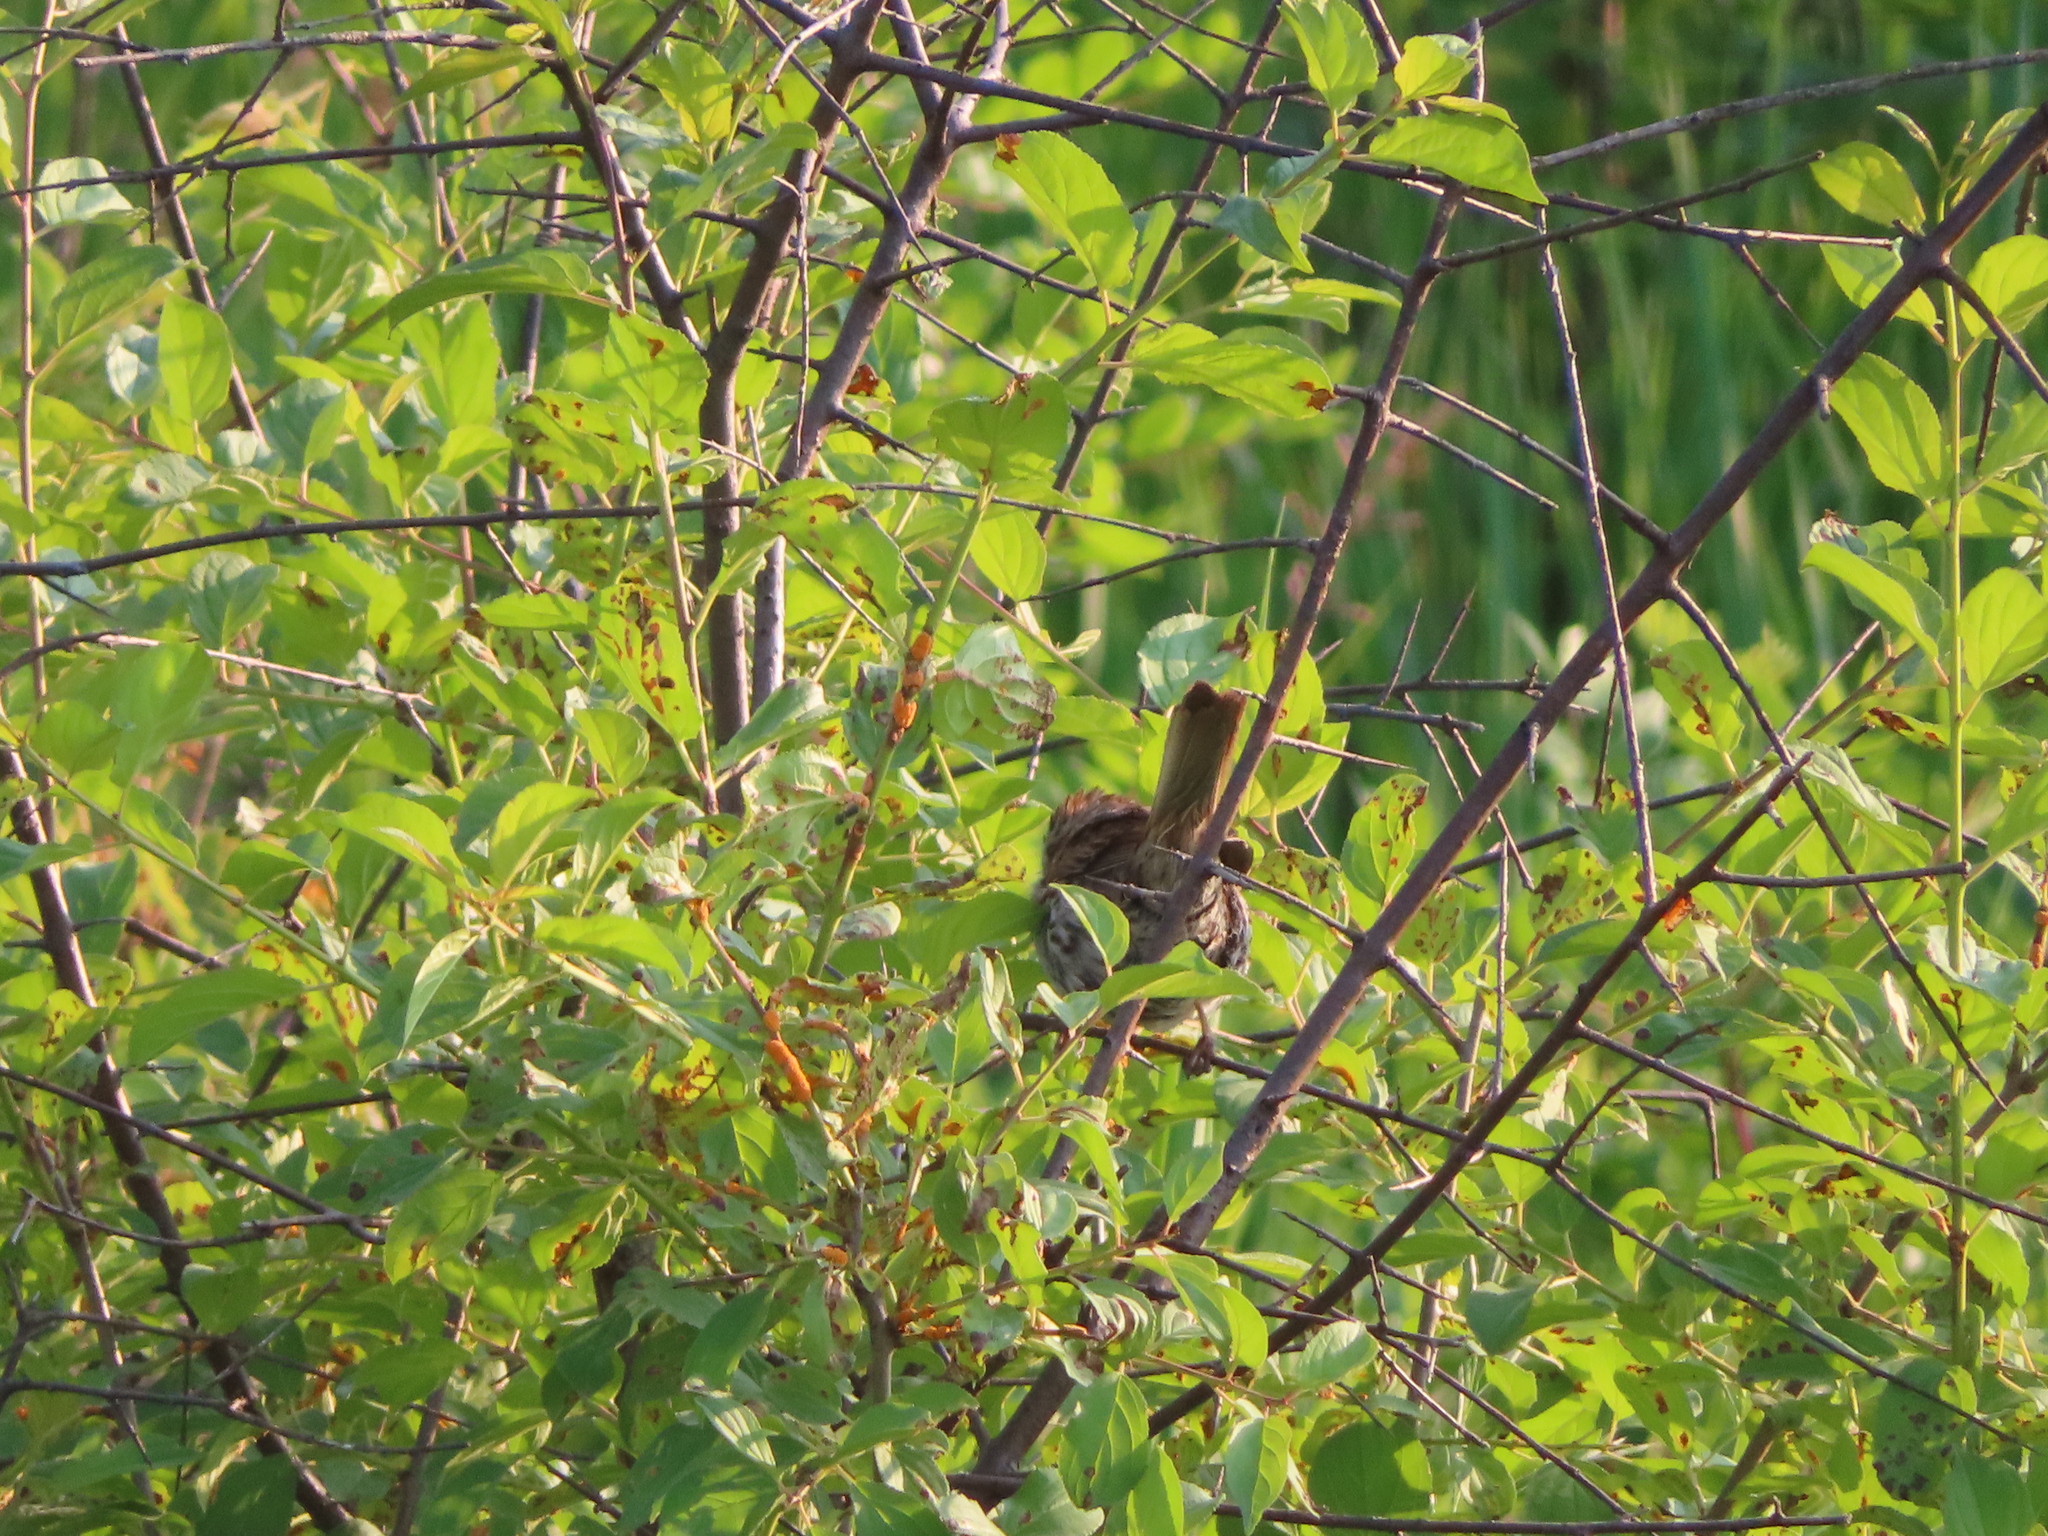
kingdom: Animalia
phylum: Chordata
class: Aves
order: Passeriformes
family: Passerellidae
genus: Melospiza
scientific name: Melospiza melodia
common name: Song sparrow
